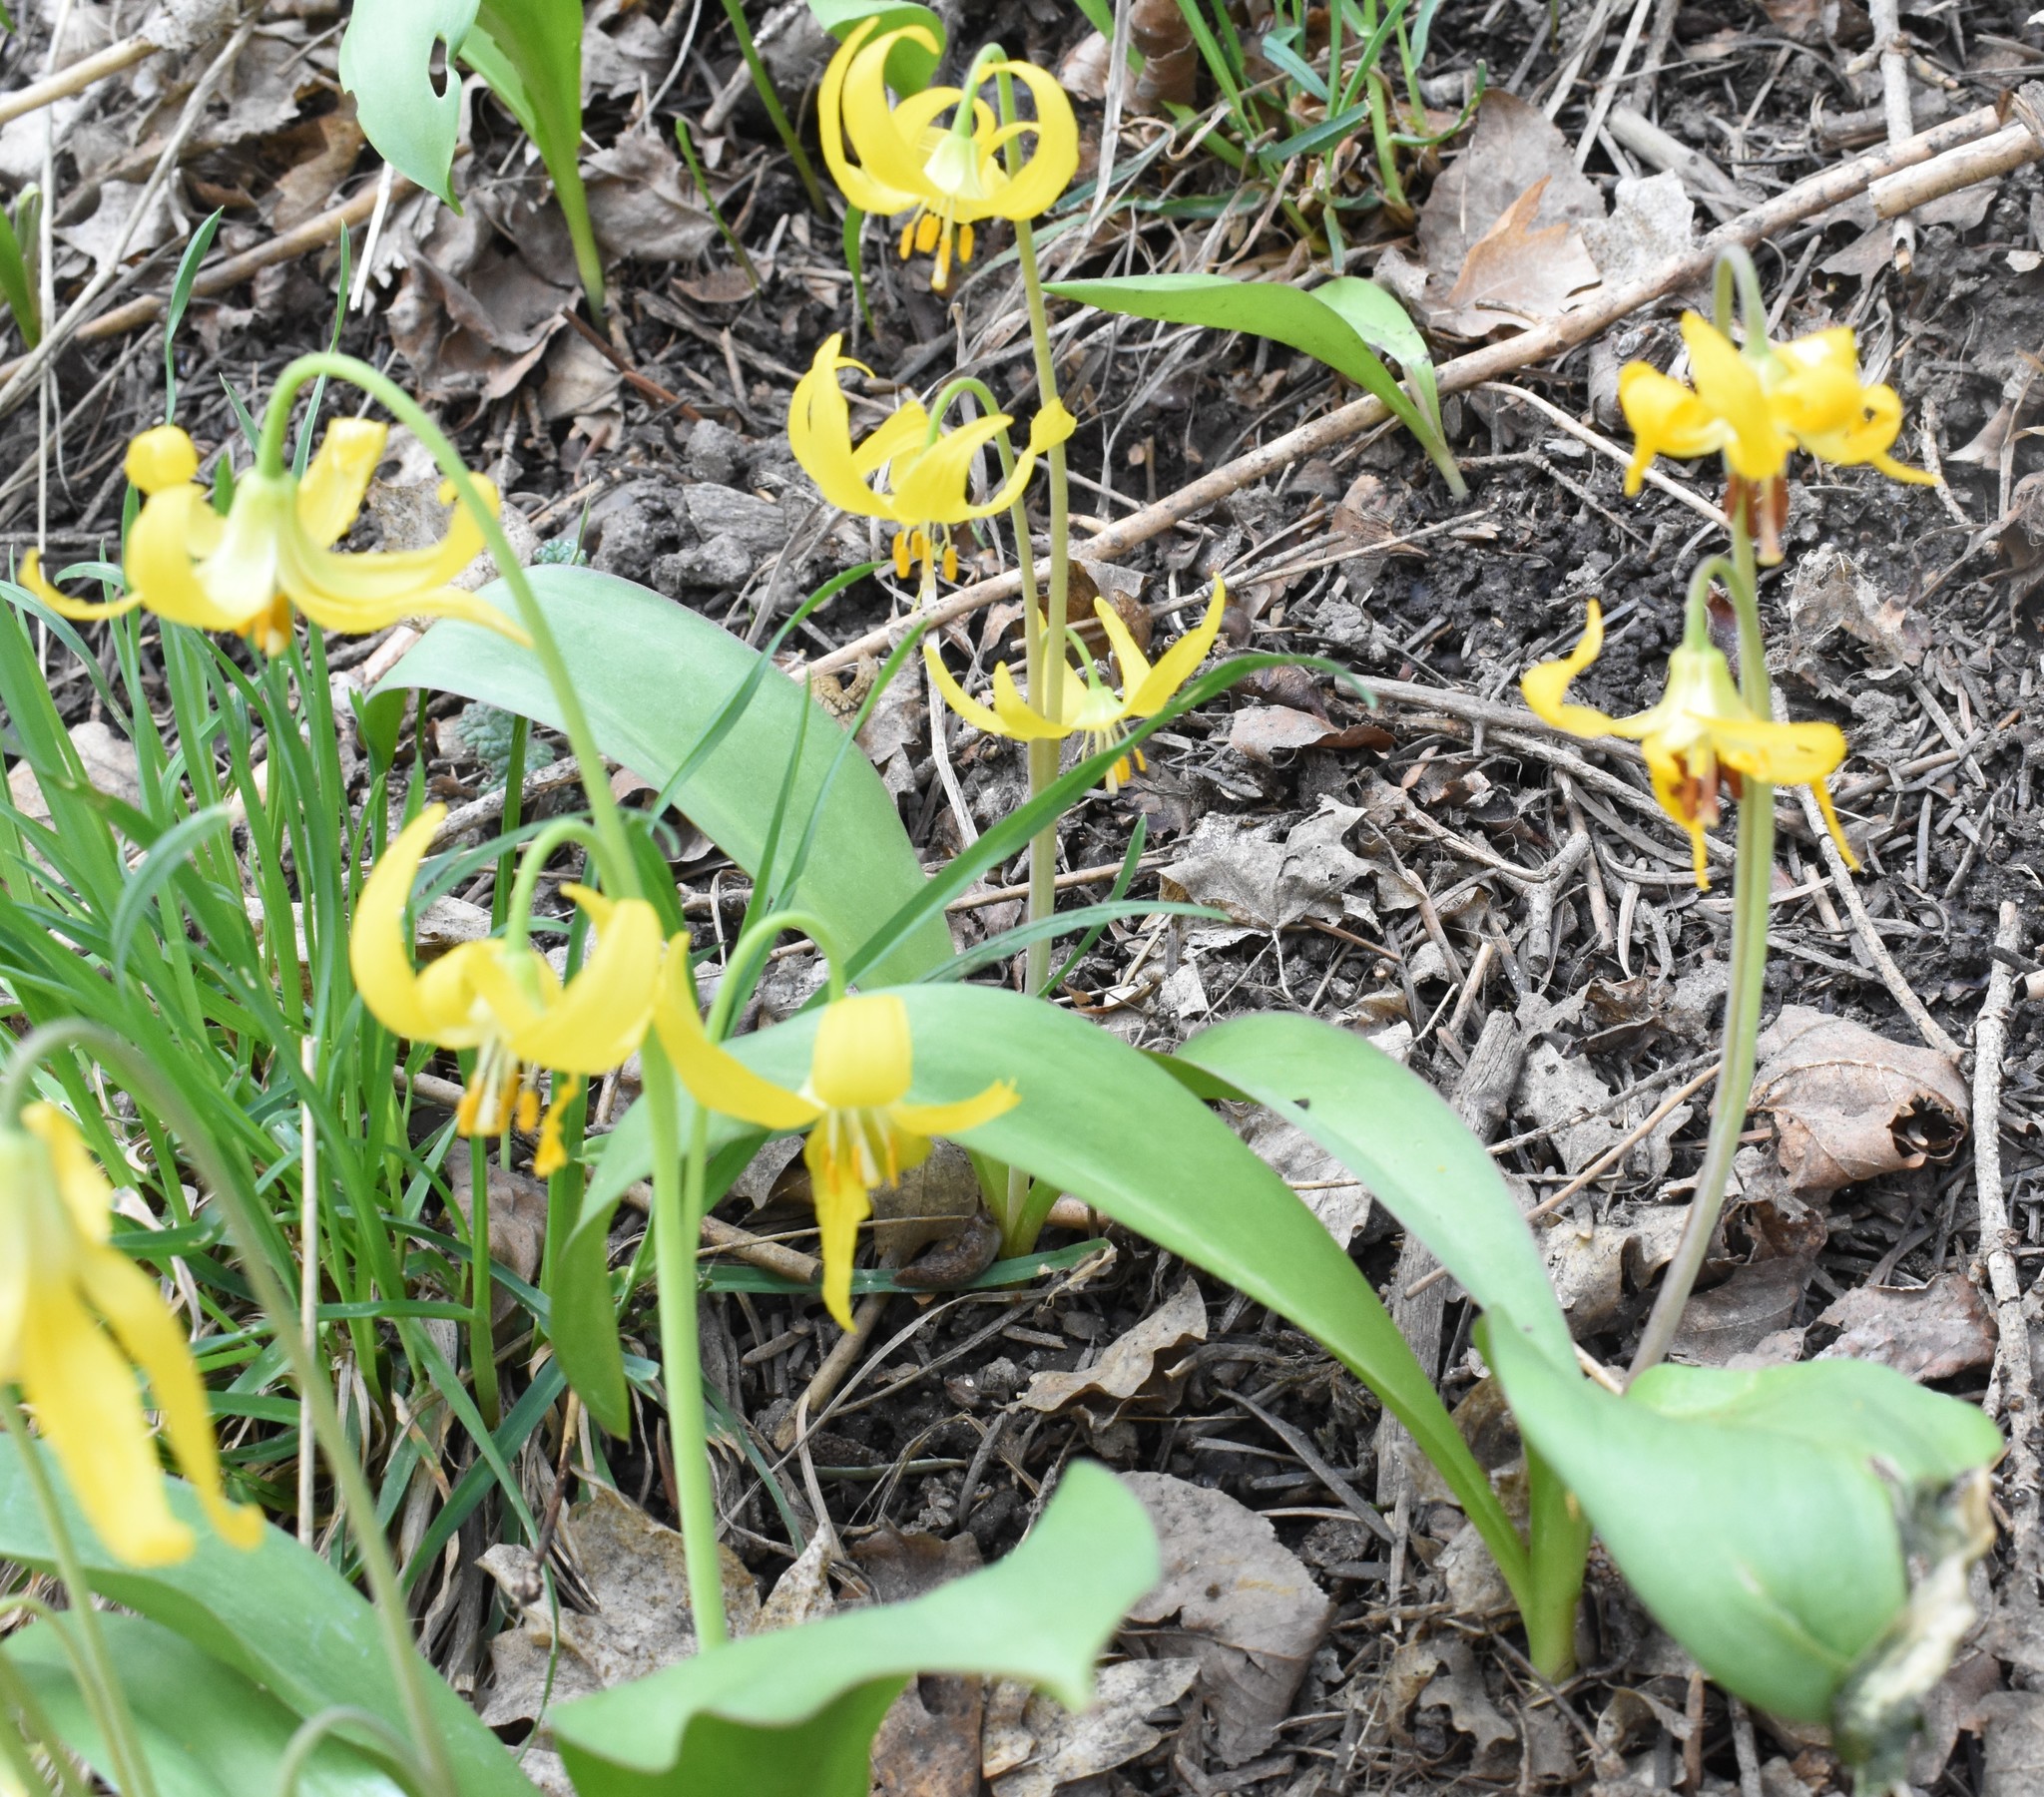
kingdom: Plantae
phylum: Tracheophyta
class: Liliopsida
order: Liliales
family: Liliaceae
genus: Erythronium
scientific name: Erythronium grandiflorum
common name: Avalanche-lily
